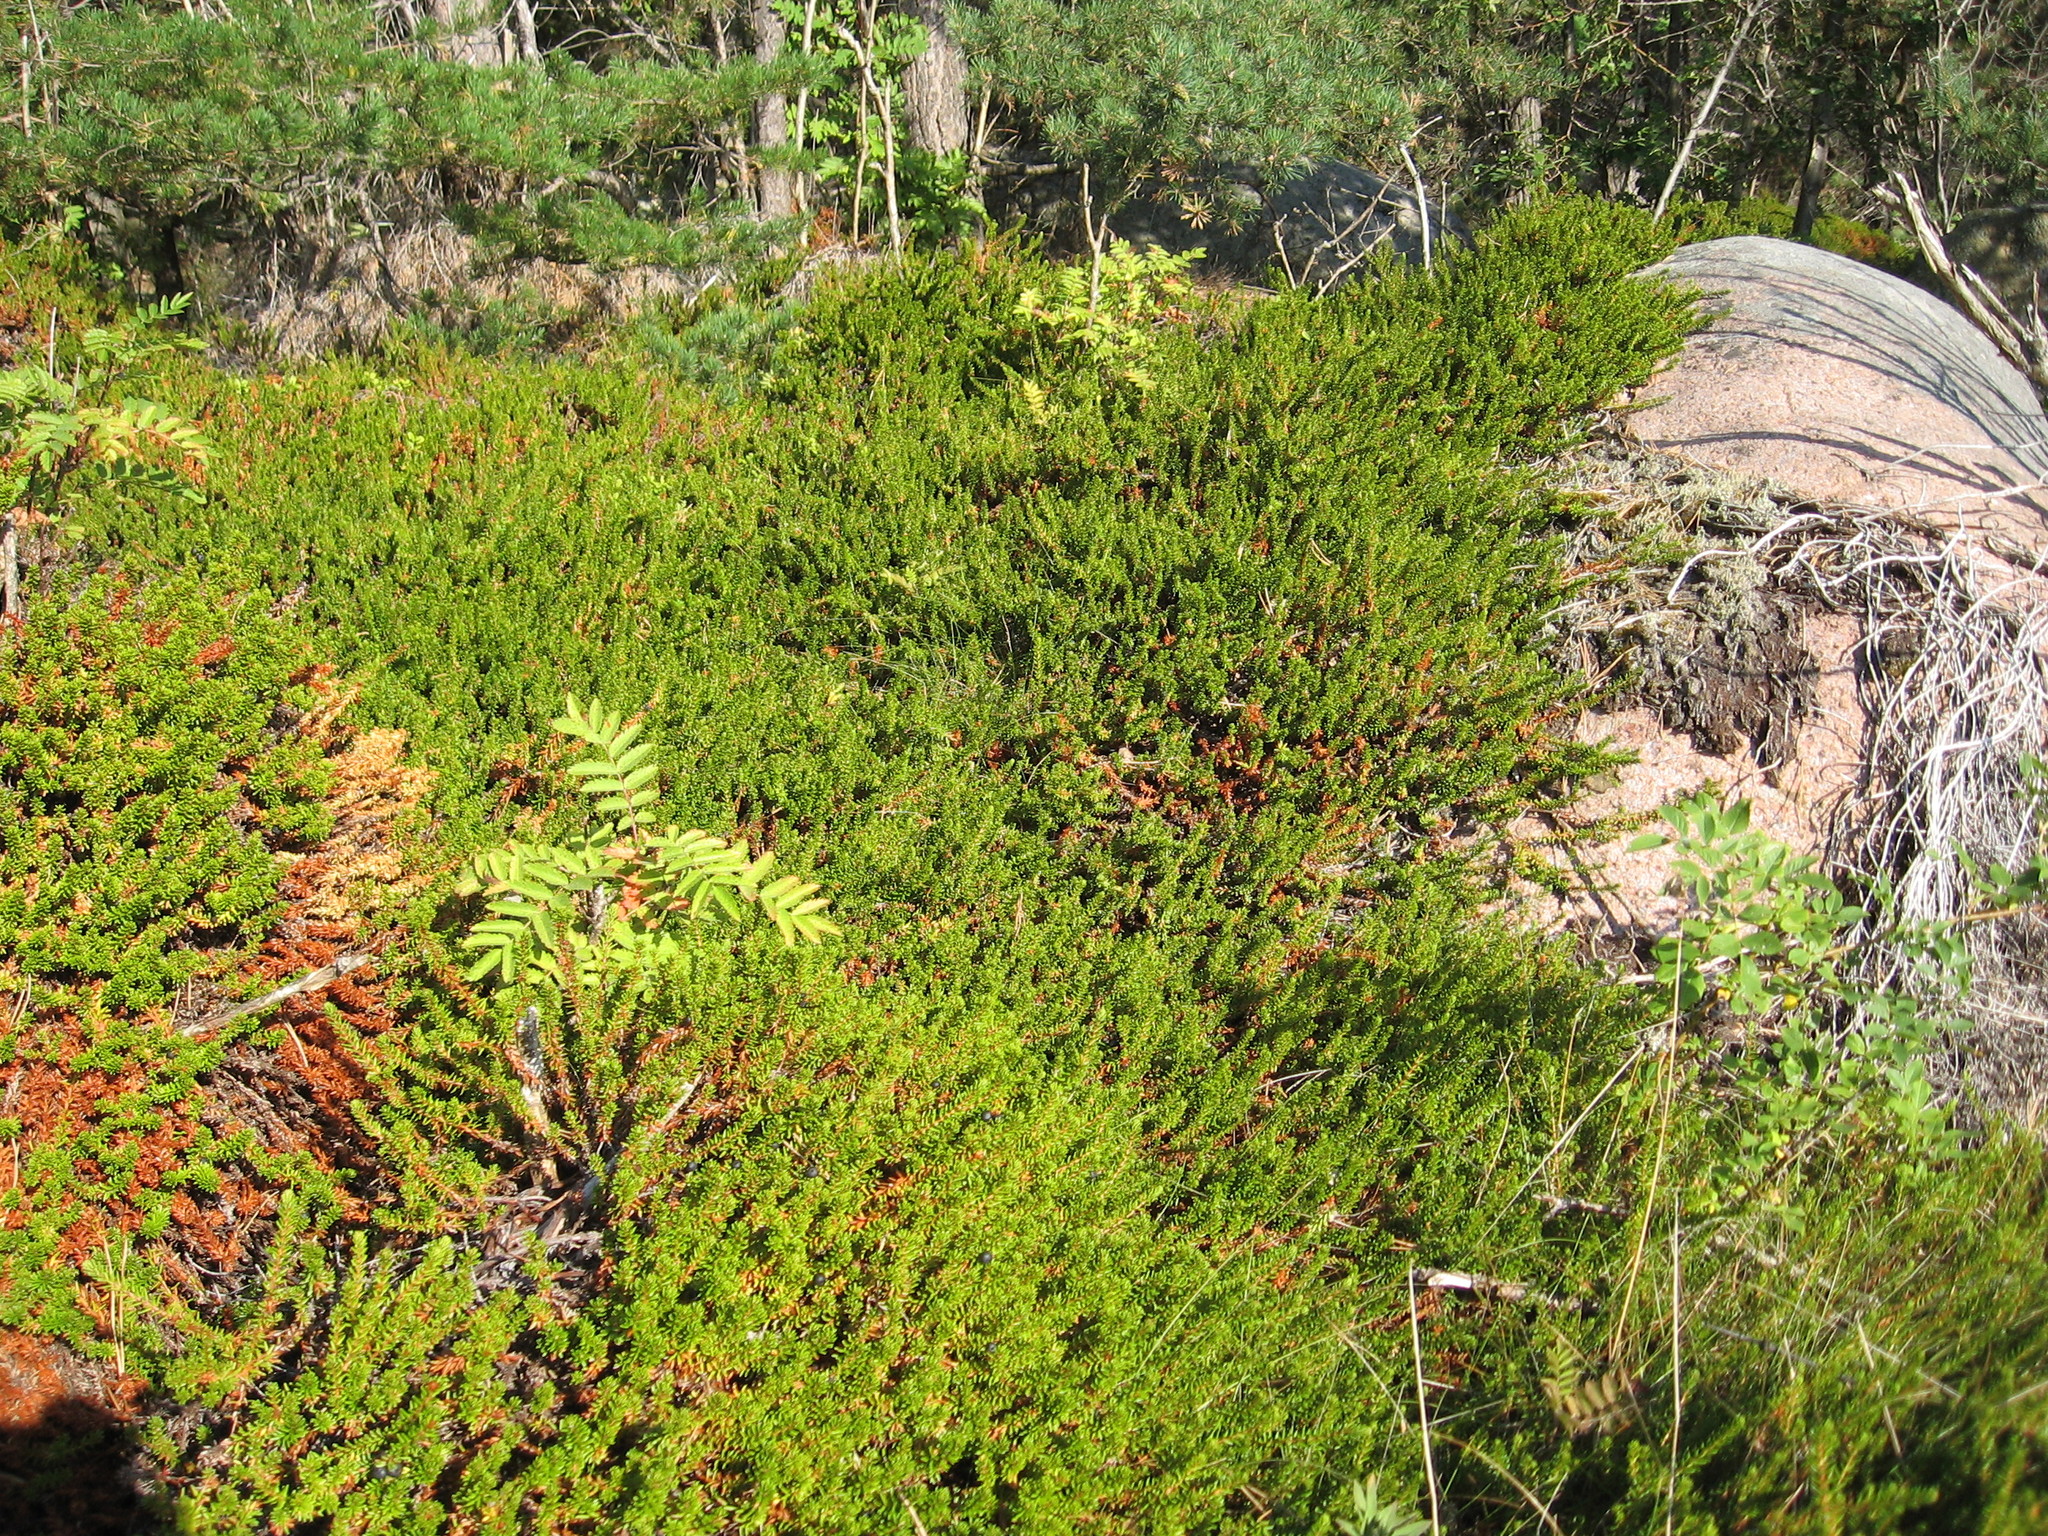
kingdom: Plantae
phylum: Tracheophyta
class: Magnoliopsida
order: Ericales
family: Ericaceae
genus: Empetrum
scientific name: Empetrum nigrum
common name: Black crowberry
